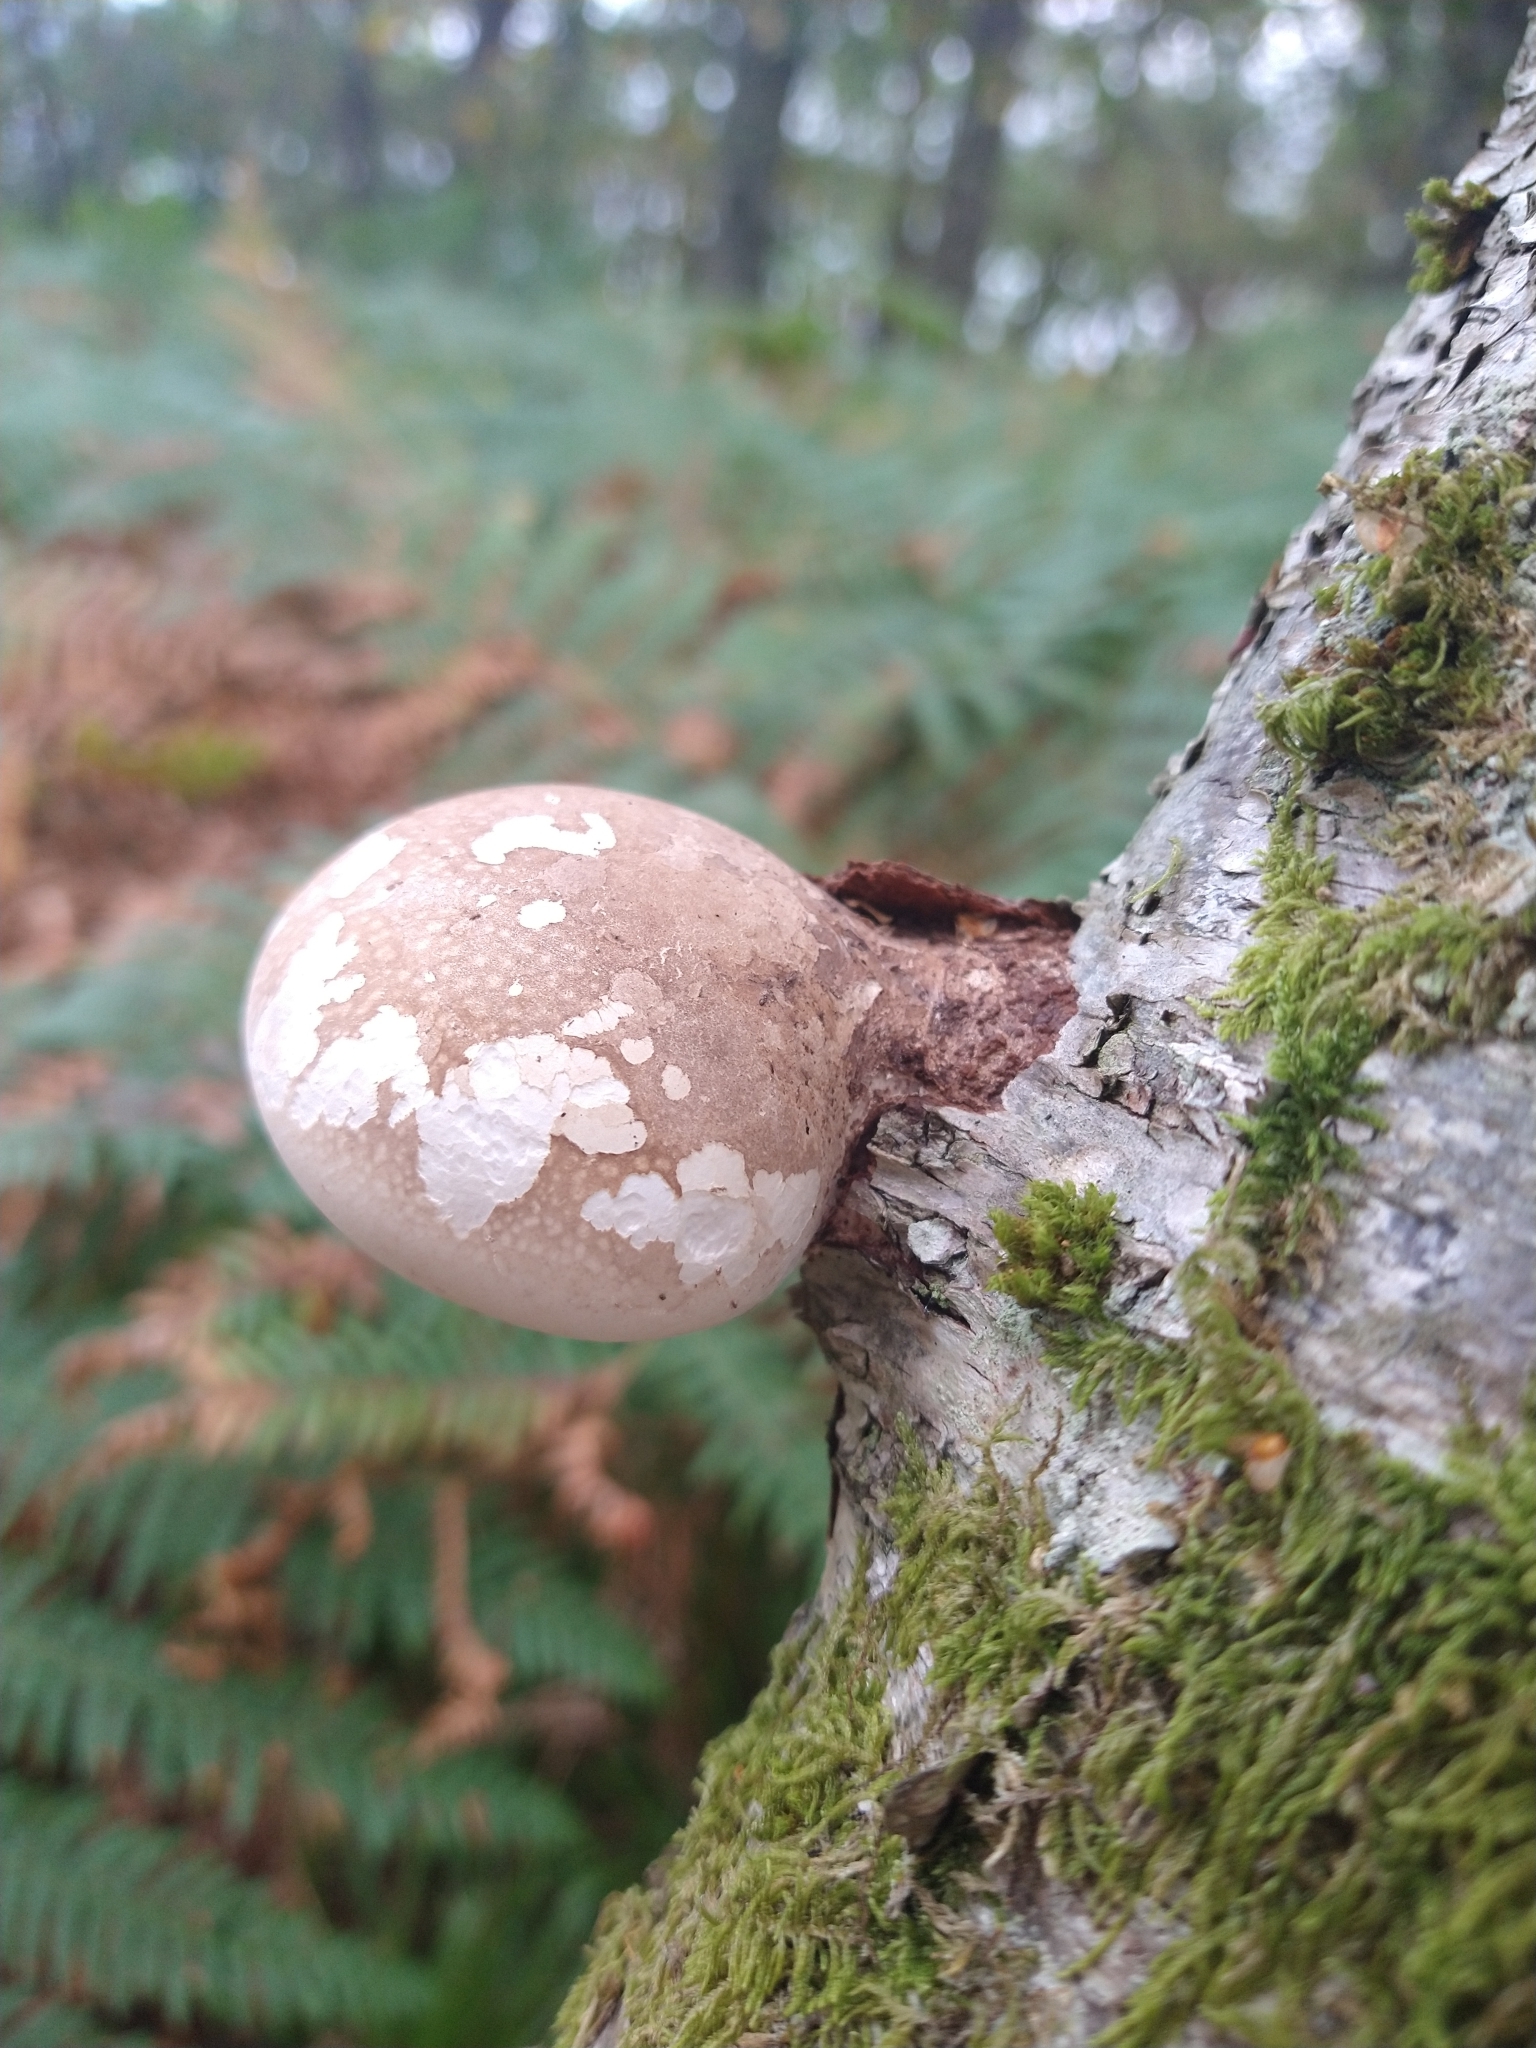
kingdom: Fungi
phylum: Basidiomycota
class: Agaricomycetes
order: Polyporales
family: Fomitopsidaceae
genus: Fomitopsis
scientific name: Fomitopsis betulina
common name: Birch polypore
